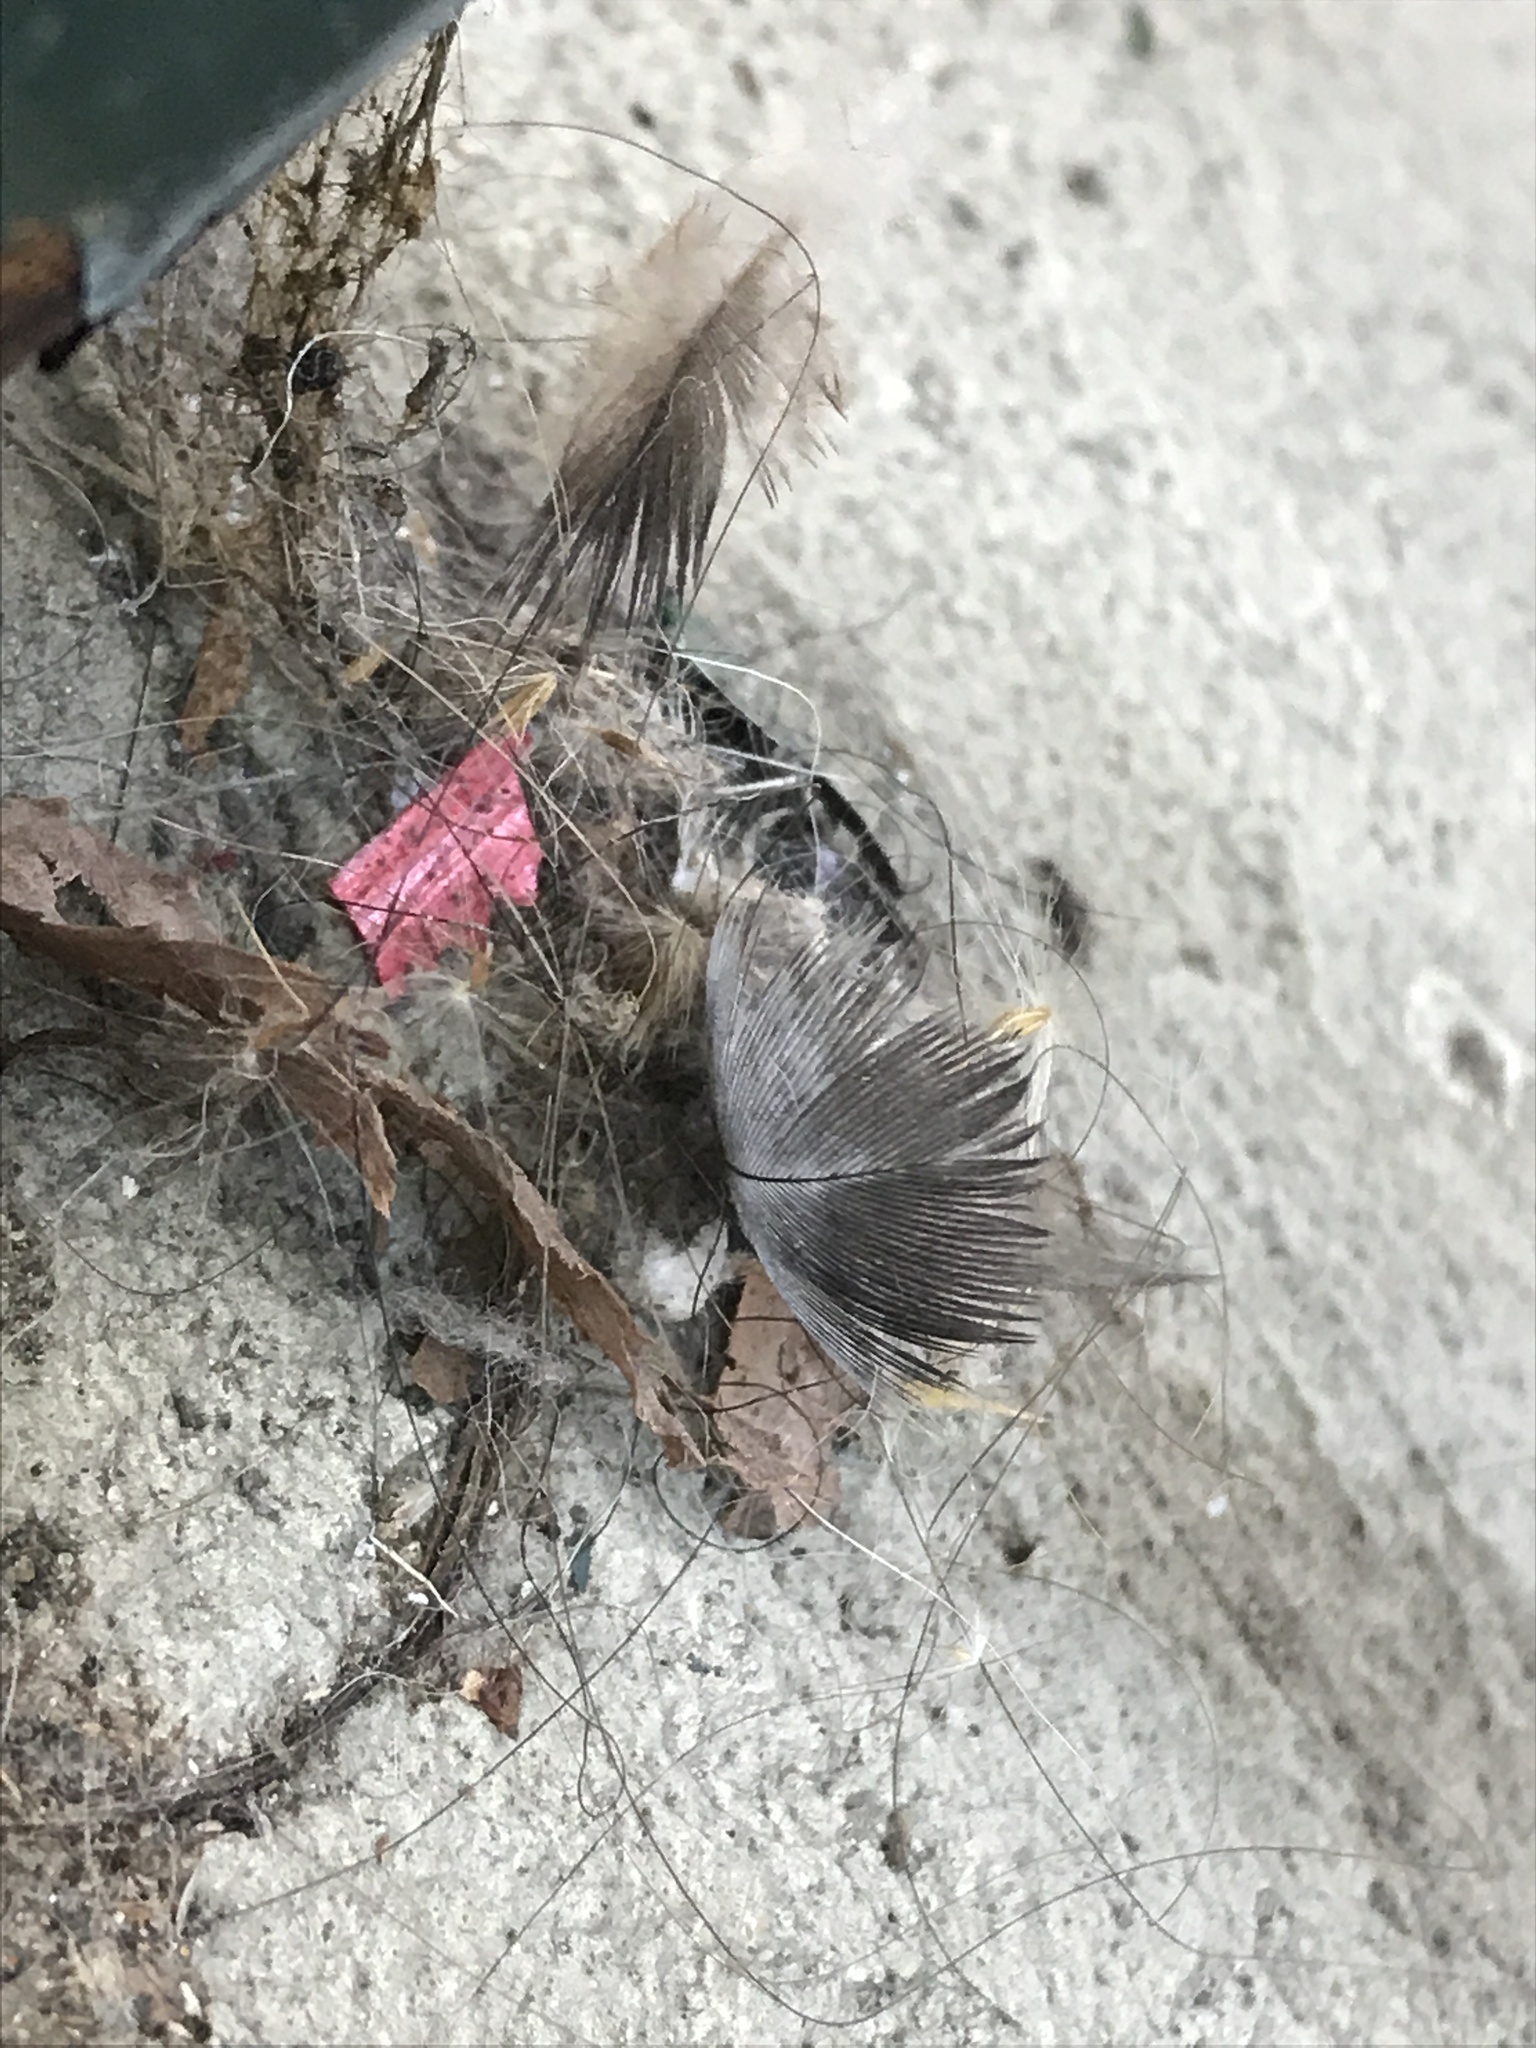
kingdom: Animalia
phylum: Chordata
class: Aves
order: Columbiformes
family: Columbidae
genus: Columba
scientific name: Columba livia
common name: Rock pigeon
